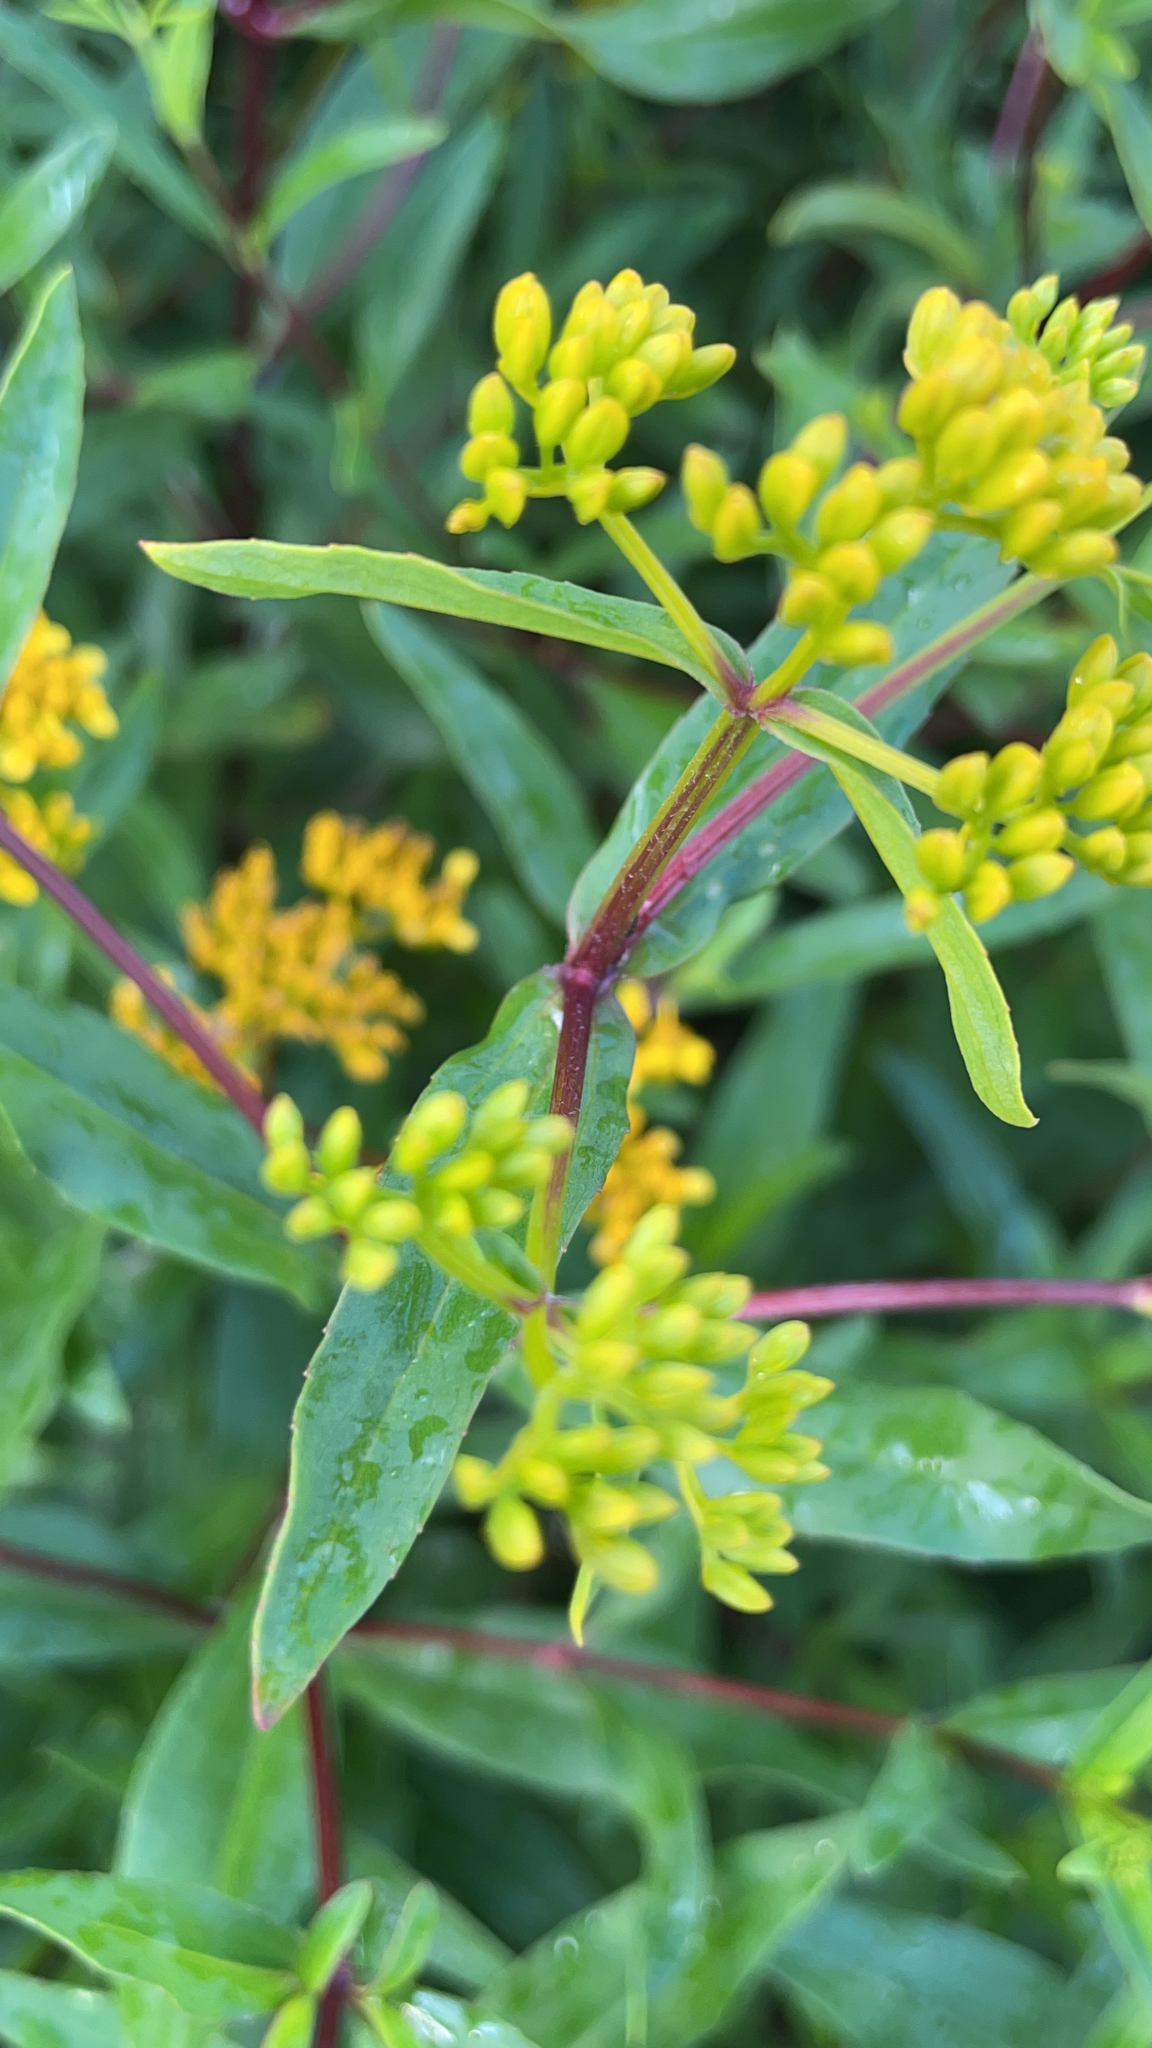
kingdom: Plantae
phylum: Tracheophyta
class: Magnoliopsida
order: Asterales
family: Asteraceae
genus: Flaveria
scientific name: Flaveria linearis
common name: Yellowtop
